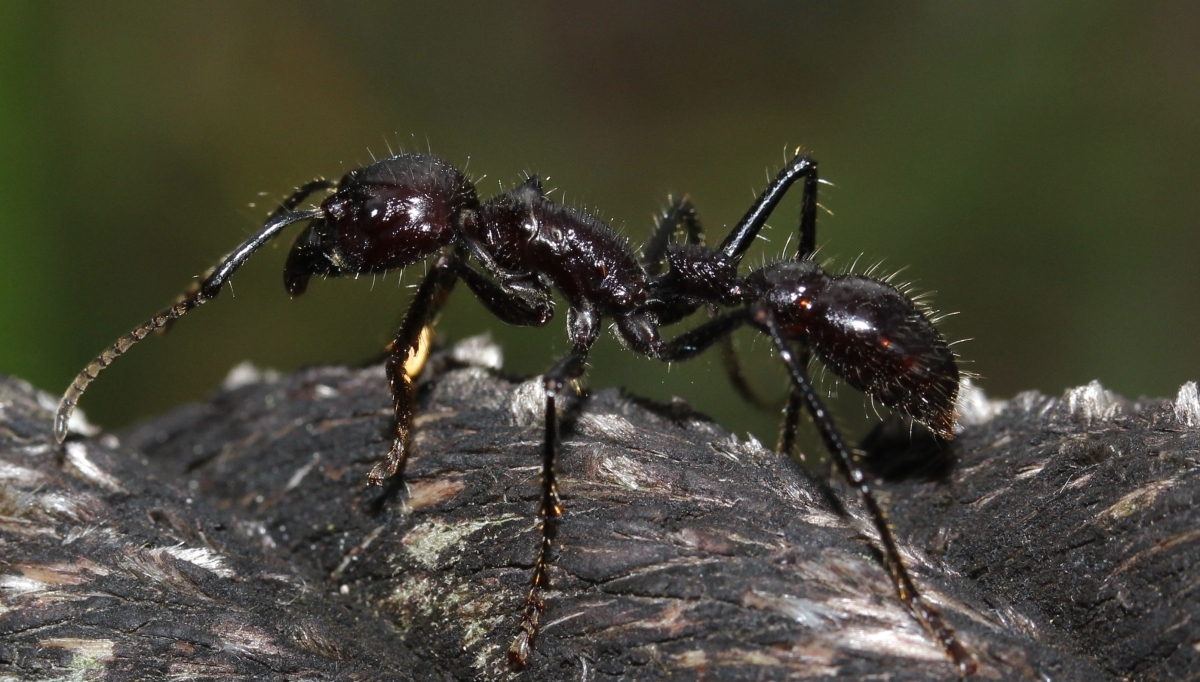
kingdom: Animalia
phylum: Arthropoda
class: Insecta
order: Hymenoptera
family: Formicidae
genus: Paraponera
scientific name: Paraponera clavata
